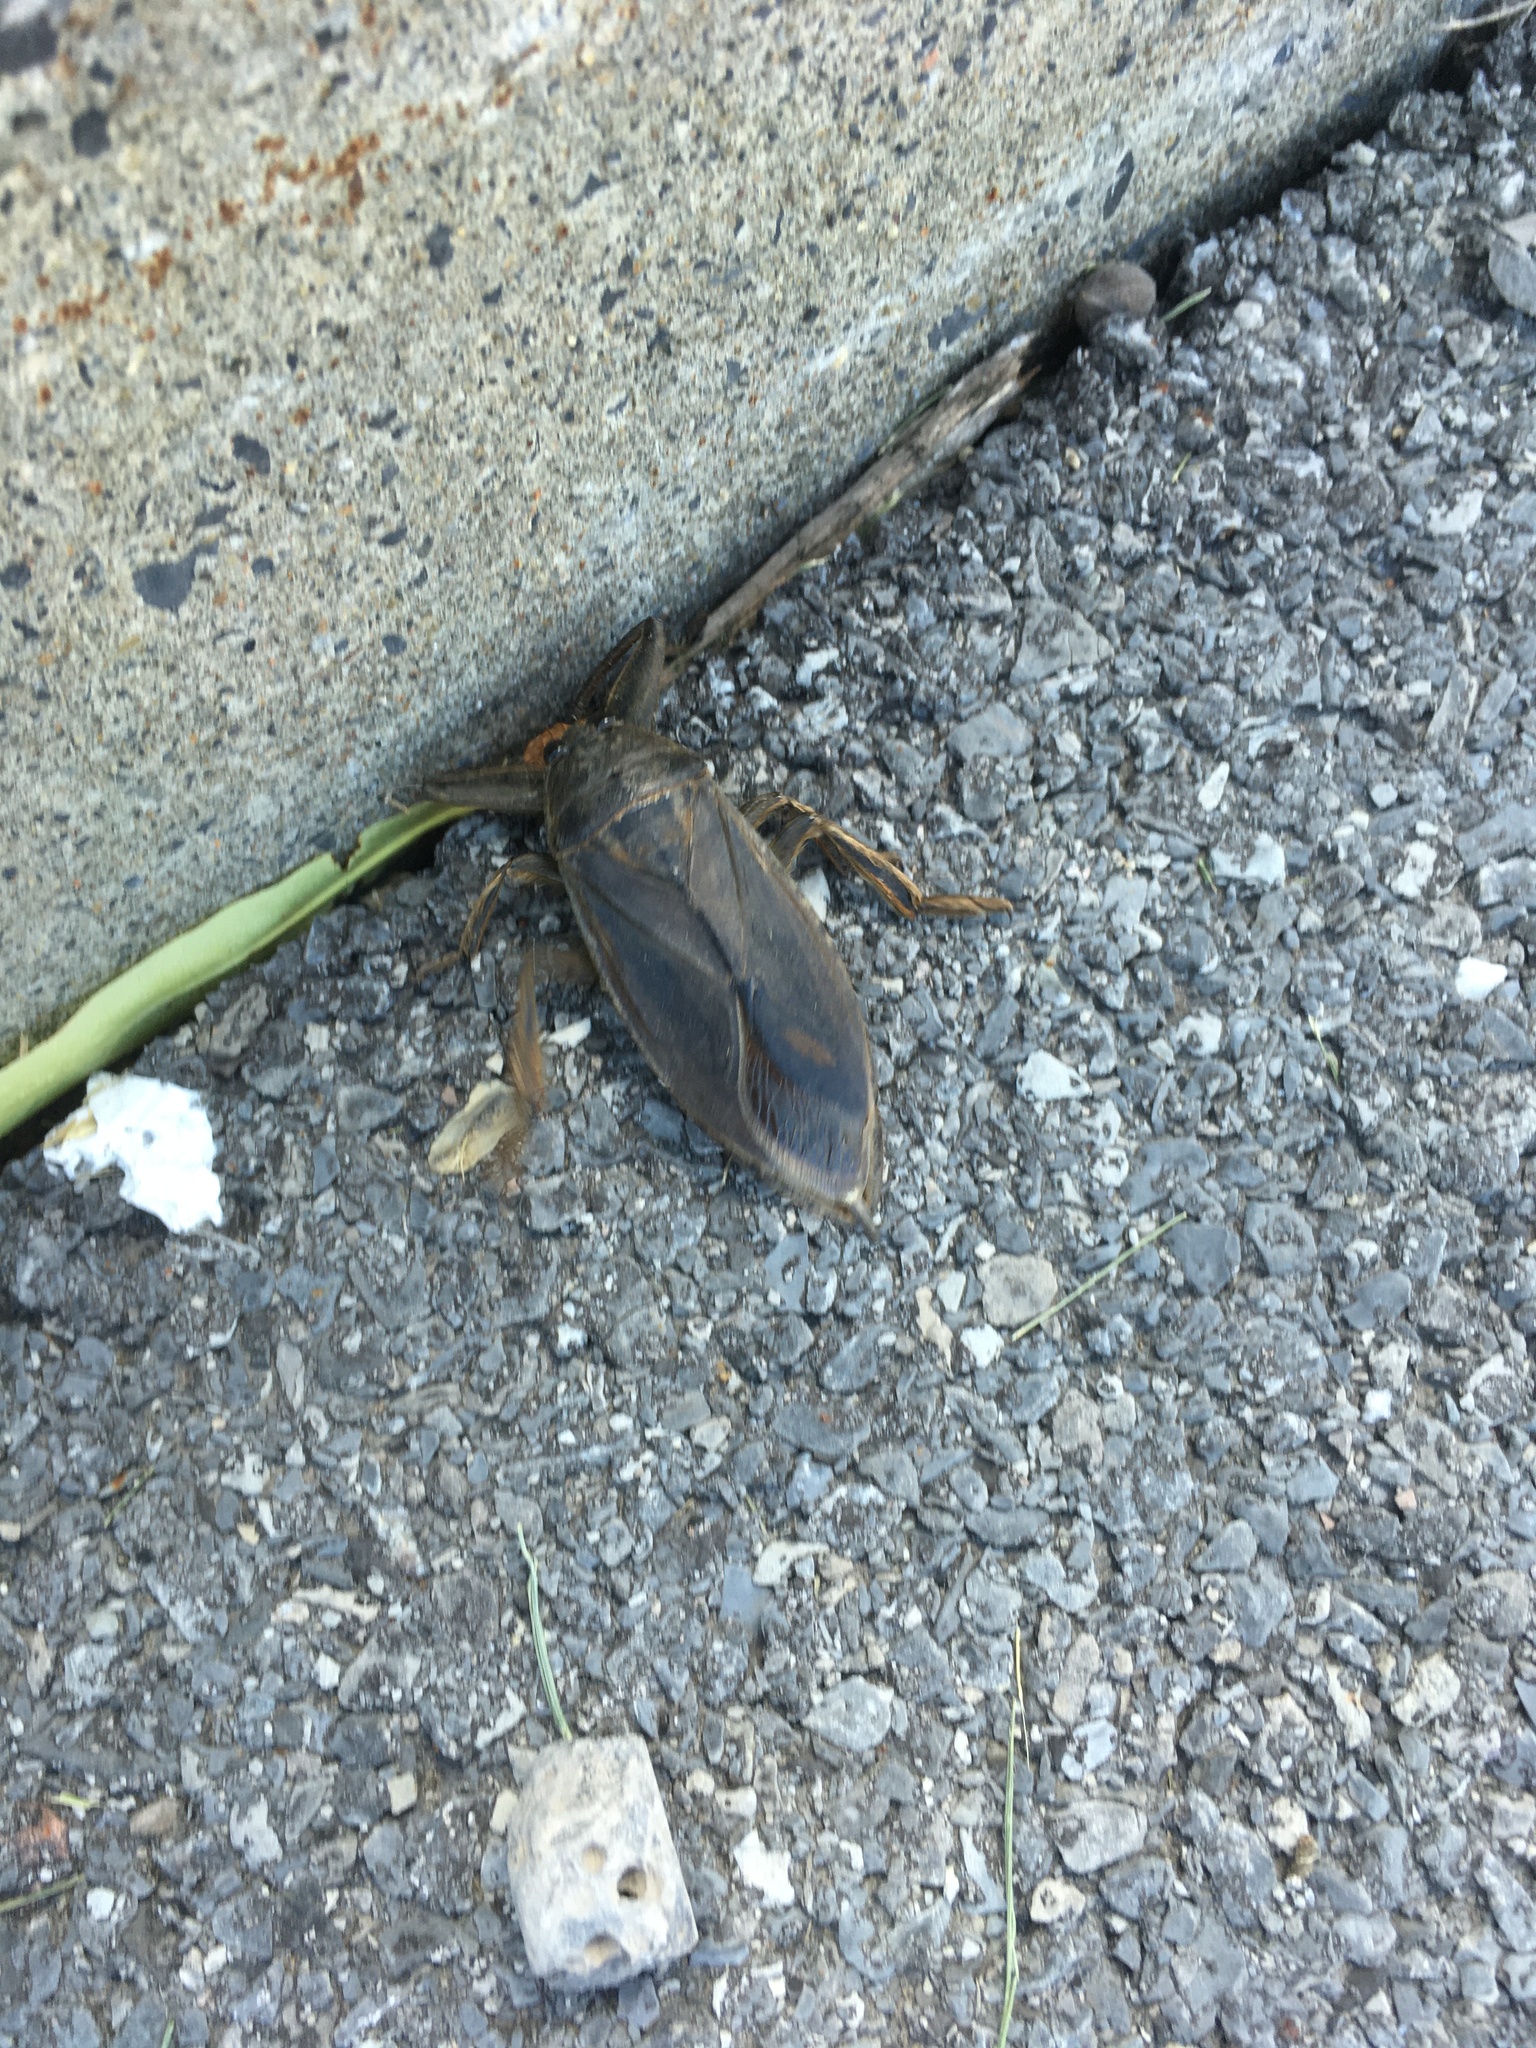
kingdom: Animalia
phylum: Arthropoda
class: Insecta
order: Hemiptera
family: Belostomatidae
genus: Lethocerus
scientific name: Lethocerus americanus
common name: Giant water bug
